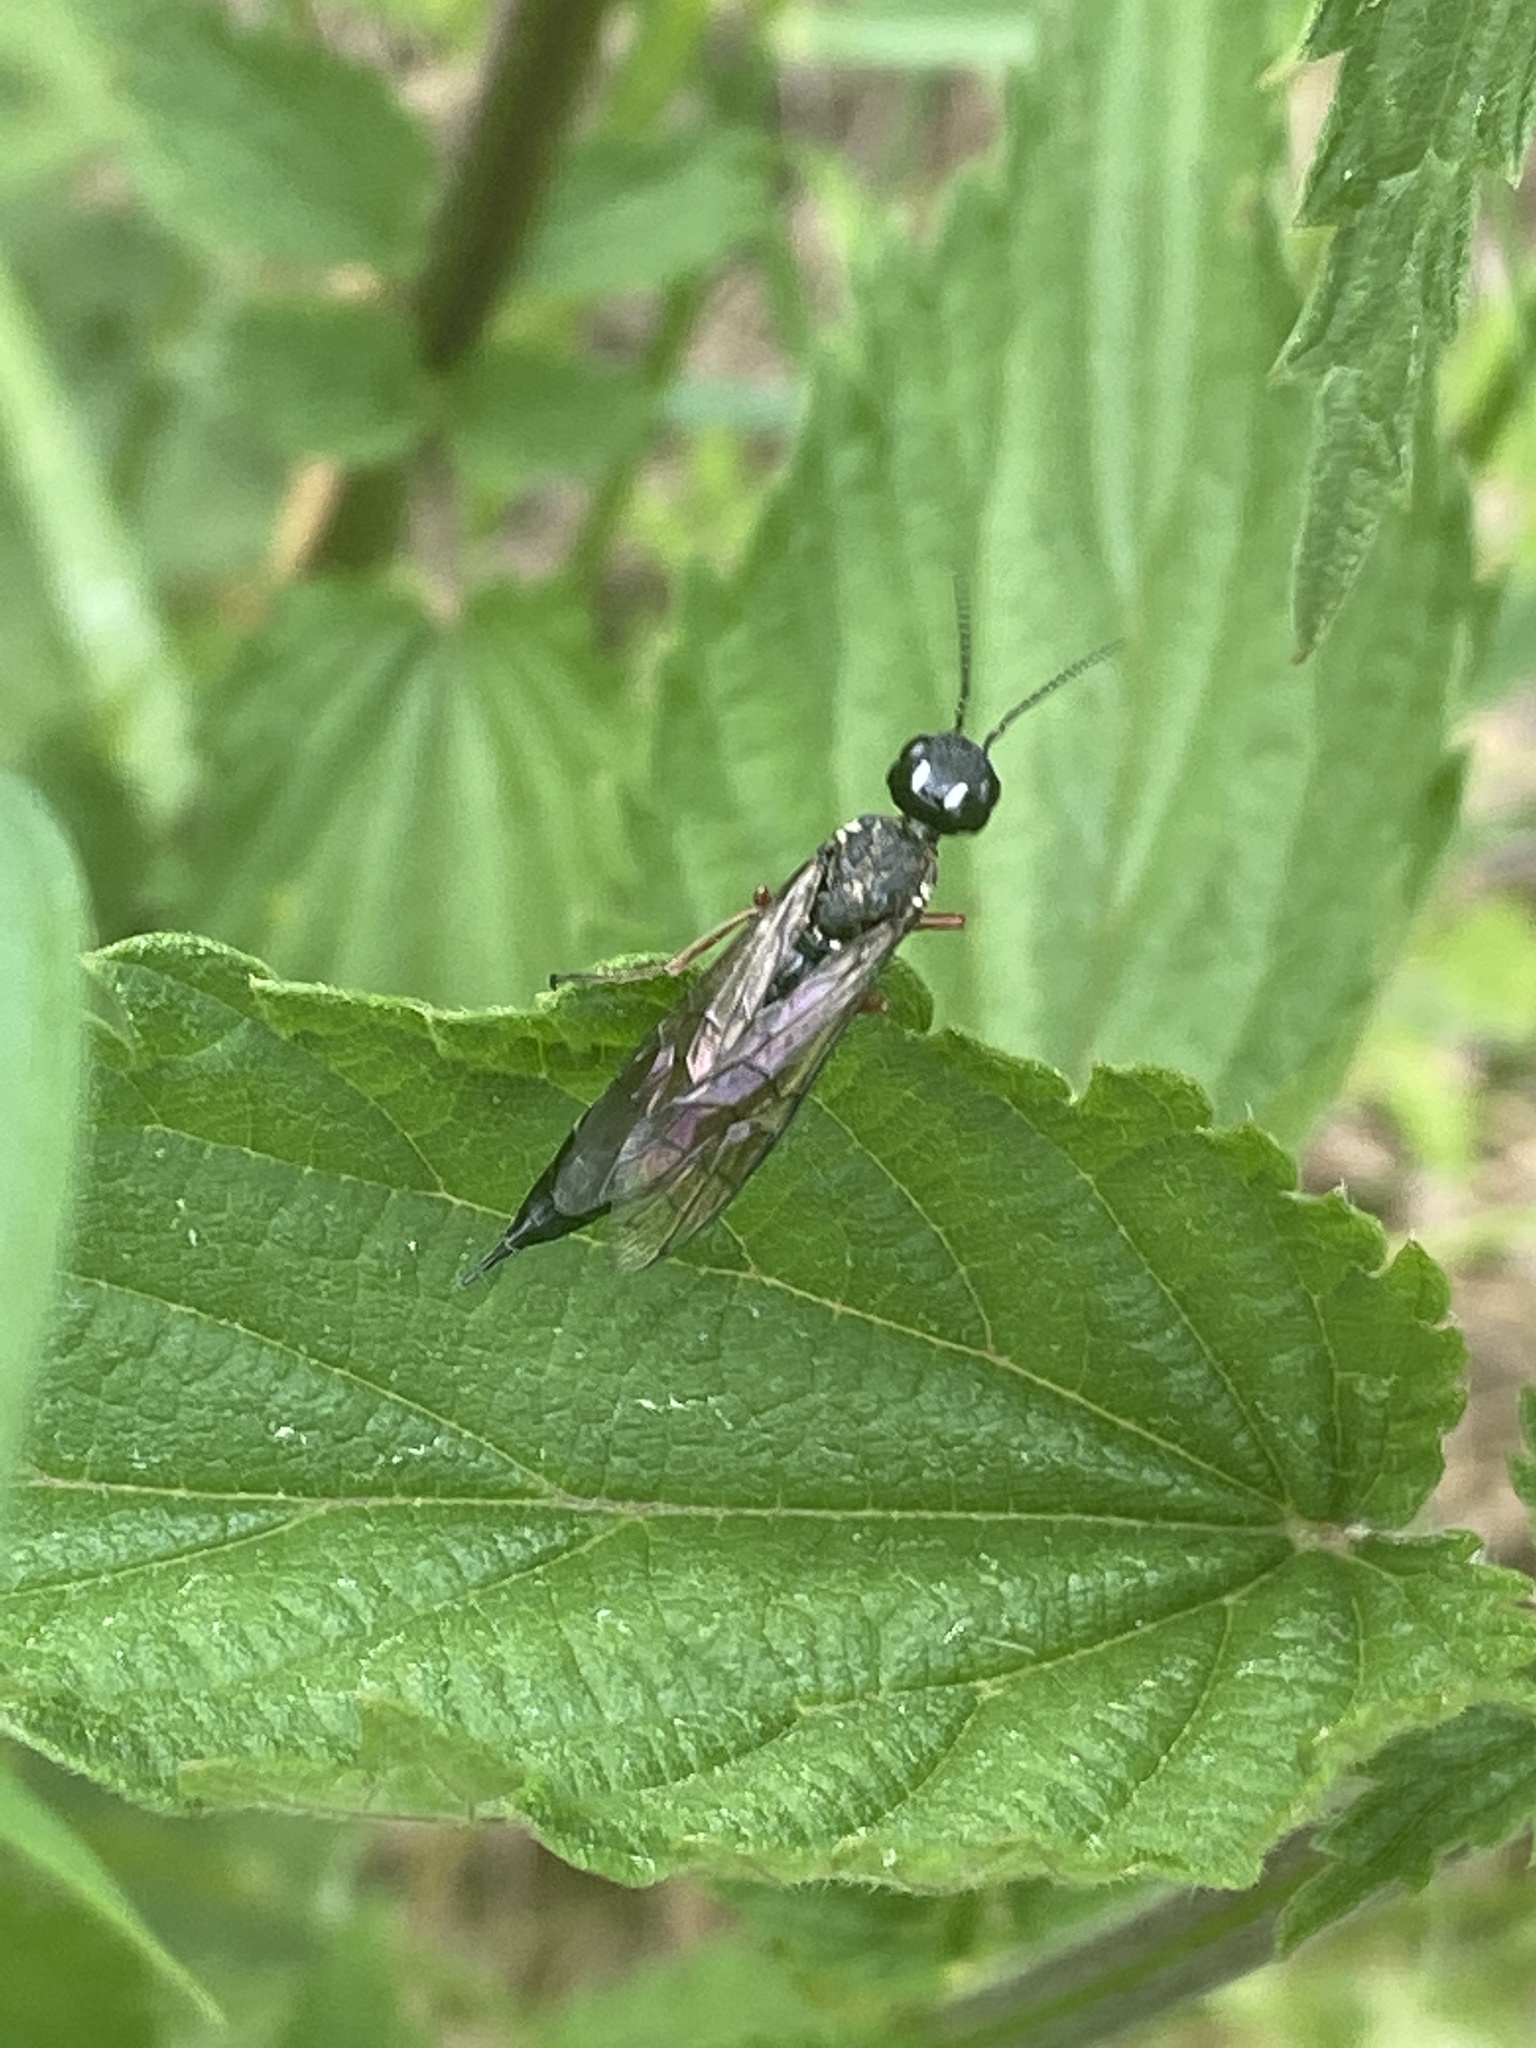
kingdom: Animalia
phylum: Arthropoda
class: Insecta
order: Hymenoptera
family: Xiphydriidae
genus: Xiphydria
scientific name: Xiphydria camelus
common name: Alder wood-wasp
